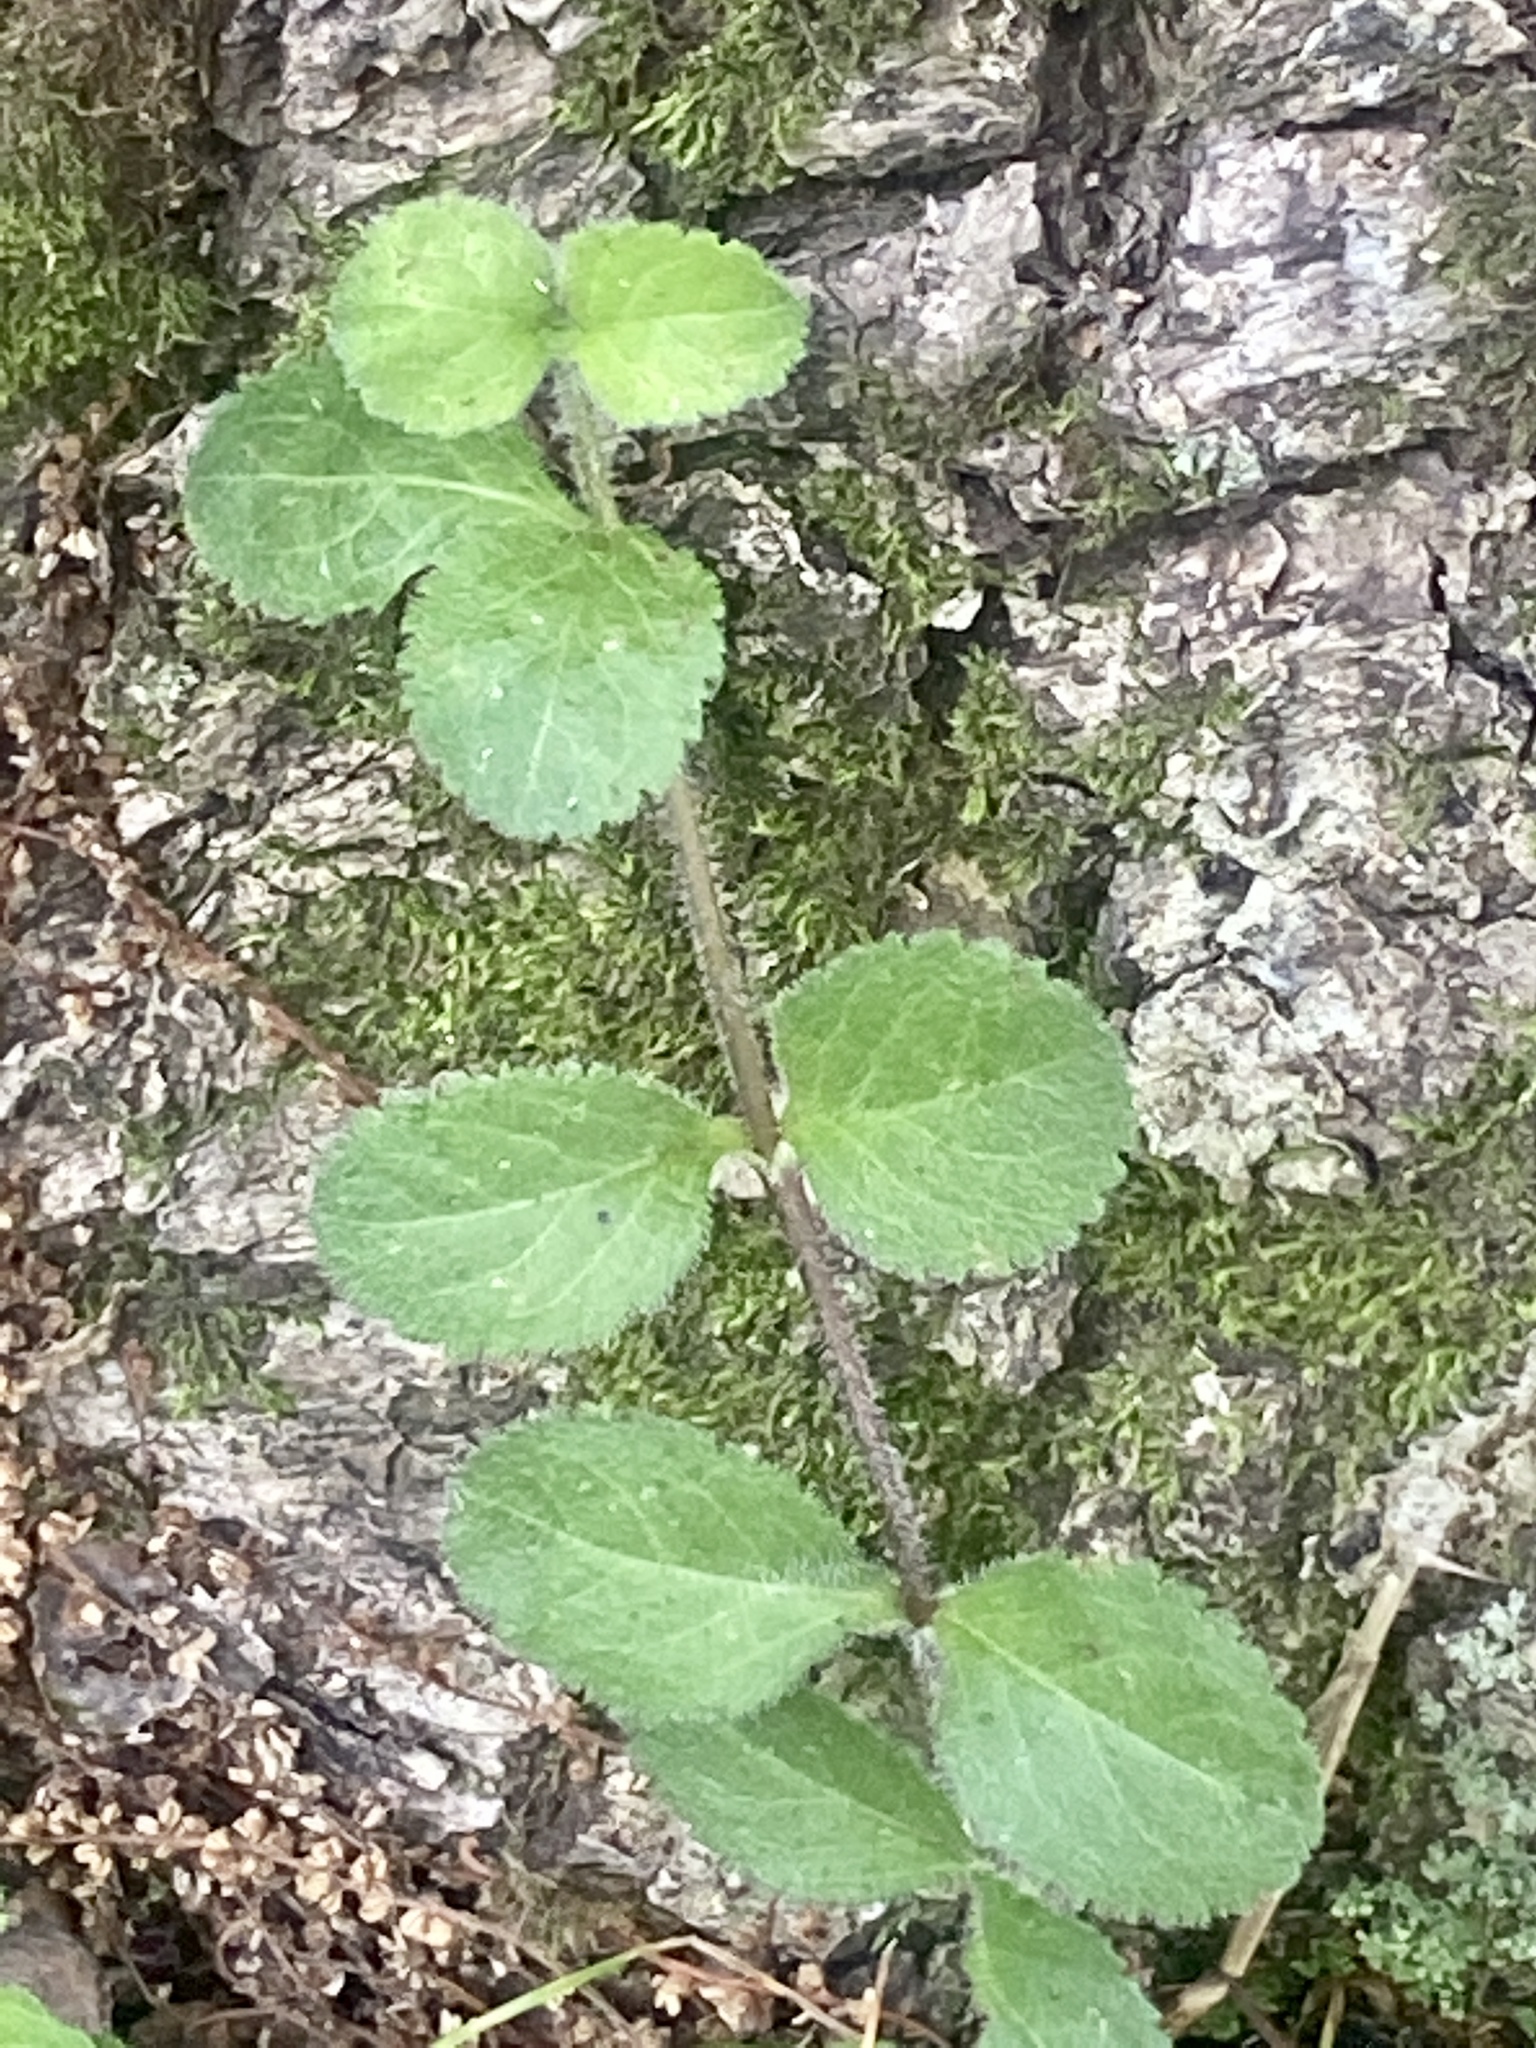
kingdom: Plantae
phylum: Tracheophyta
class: Magnoliopsida
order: Lamiales
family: Plantaginaceae
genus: Veronica
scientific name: Veronica officinalis
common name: Common speedwell
